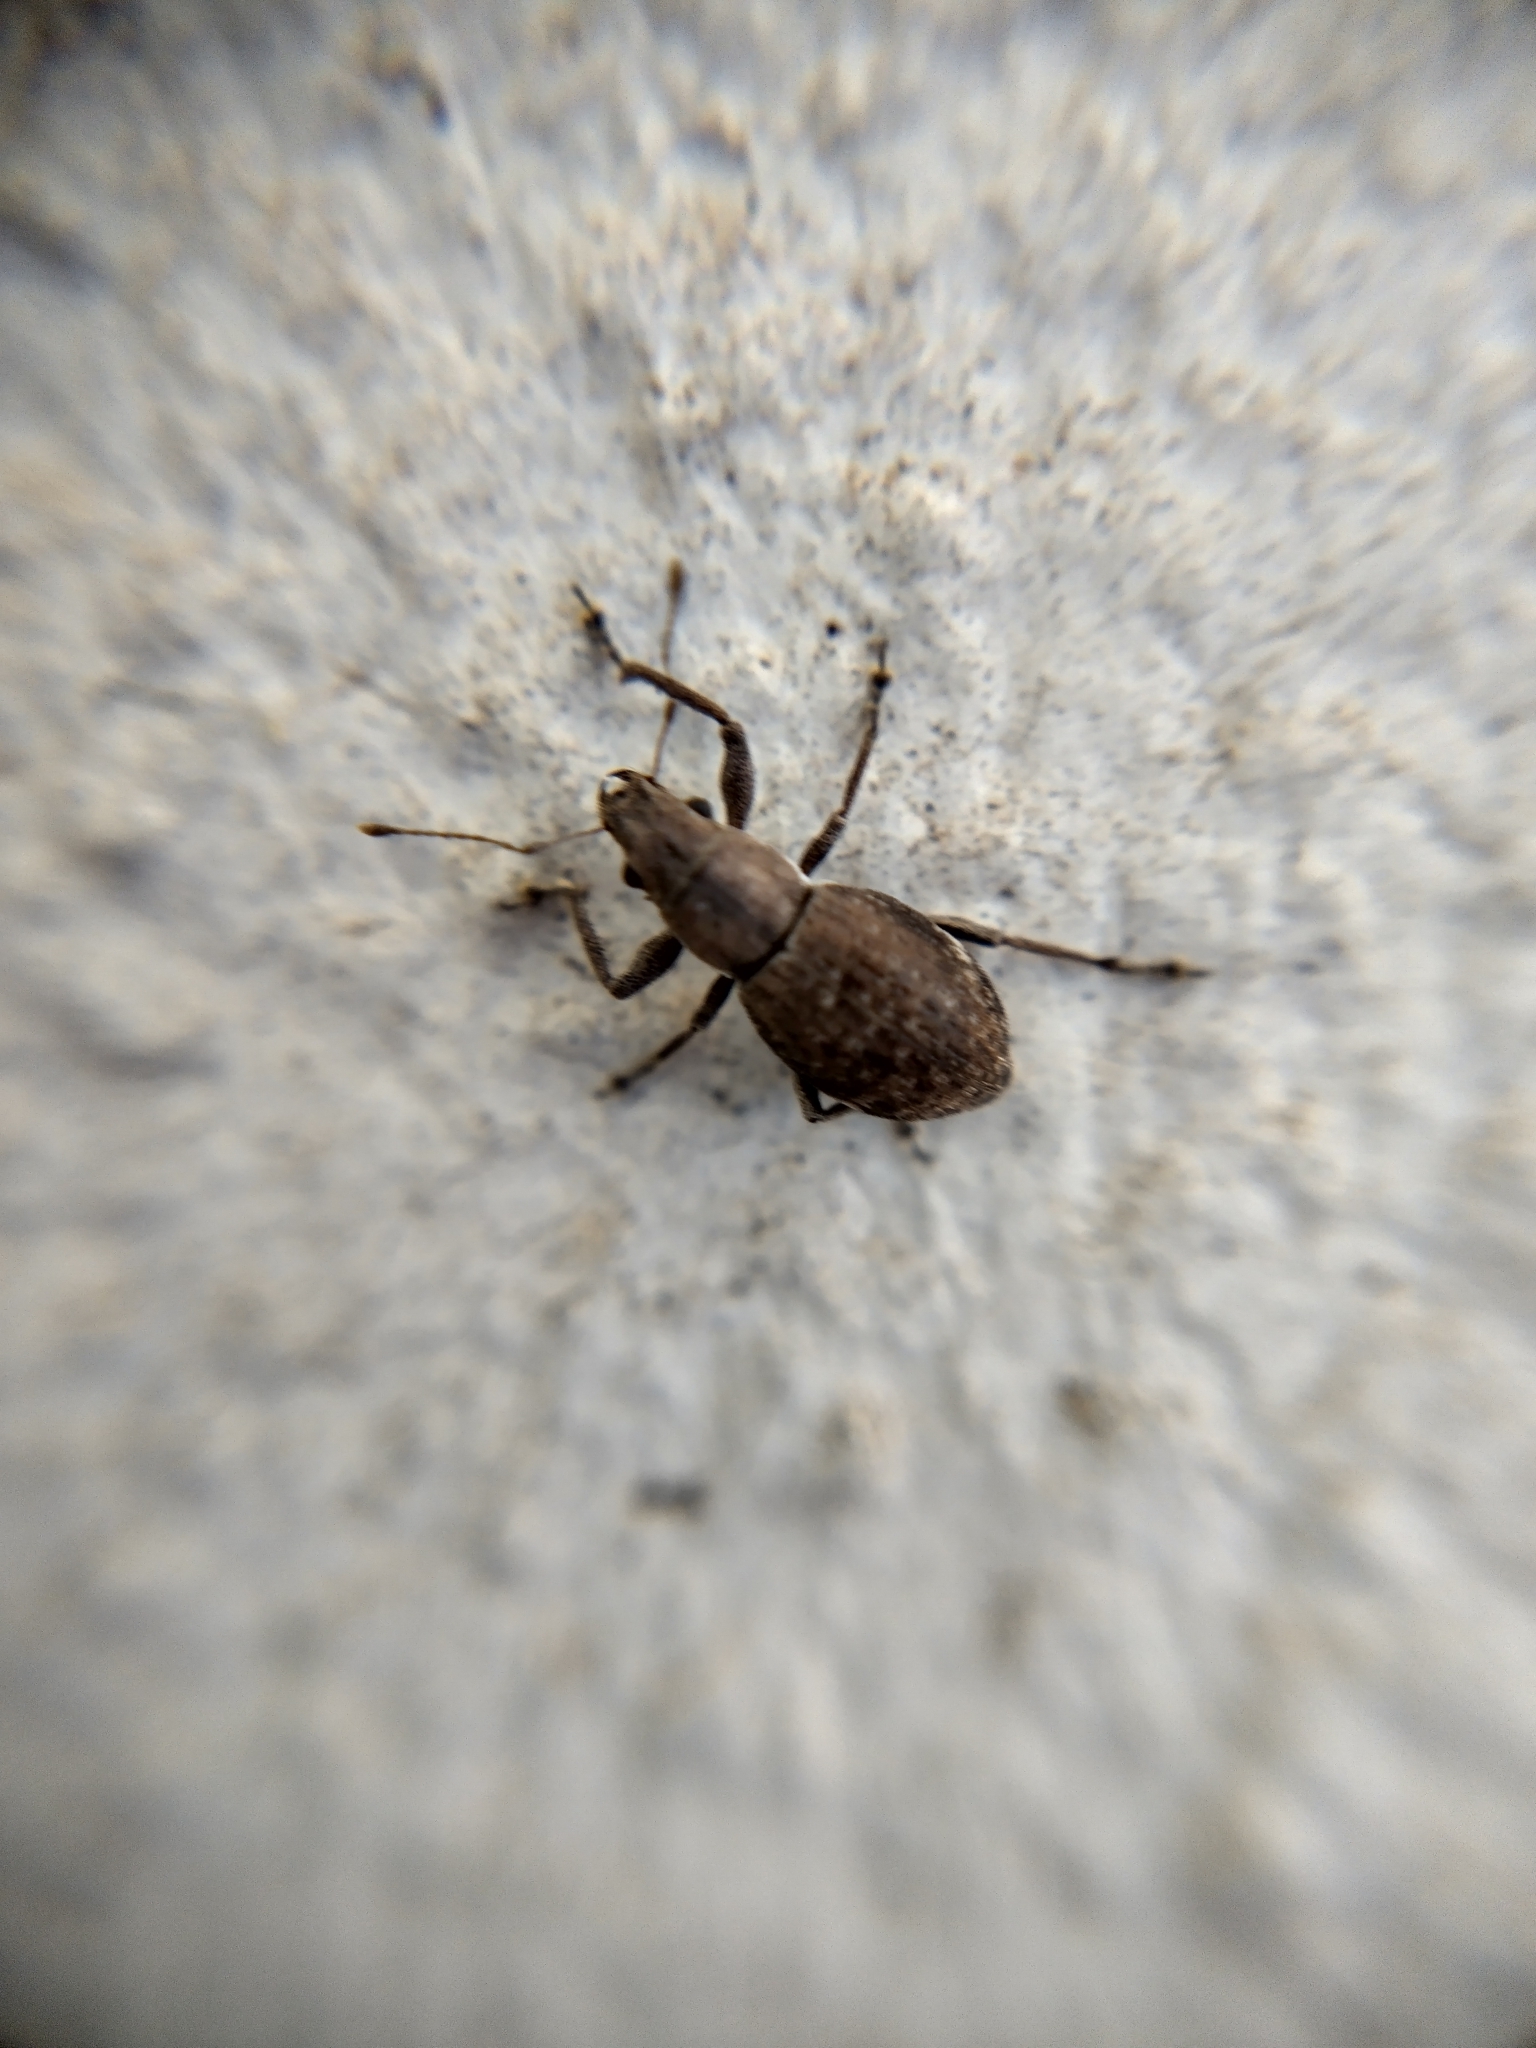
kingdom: Animalia
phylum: Arthropoda
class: Insecta
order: Coleoptera
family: Curculionidae
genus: Naupactus
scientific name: Naupactus cervinus
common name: Fuller rose beetle
